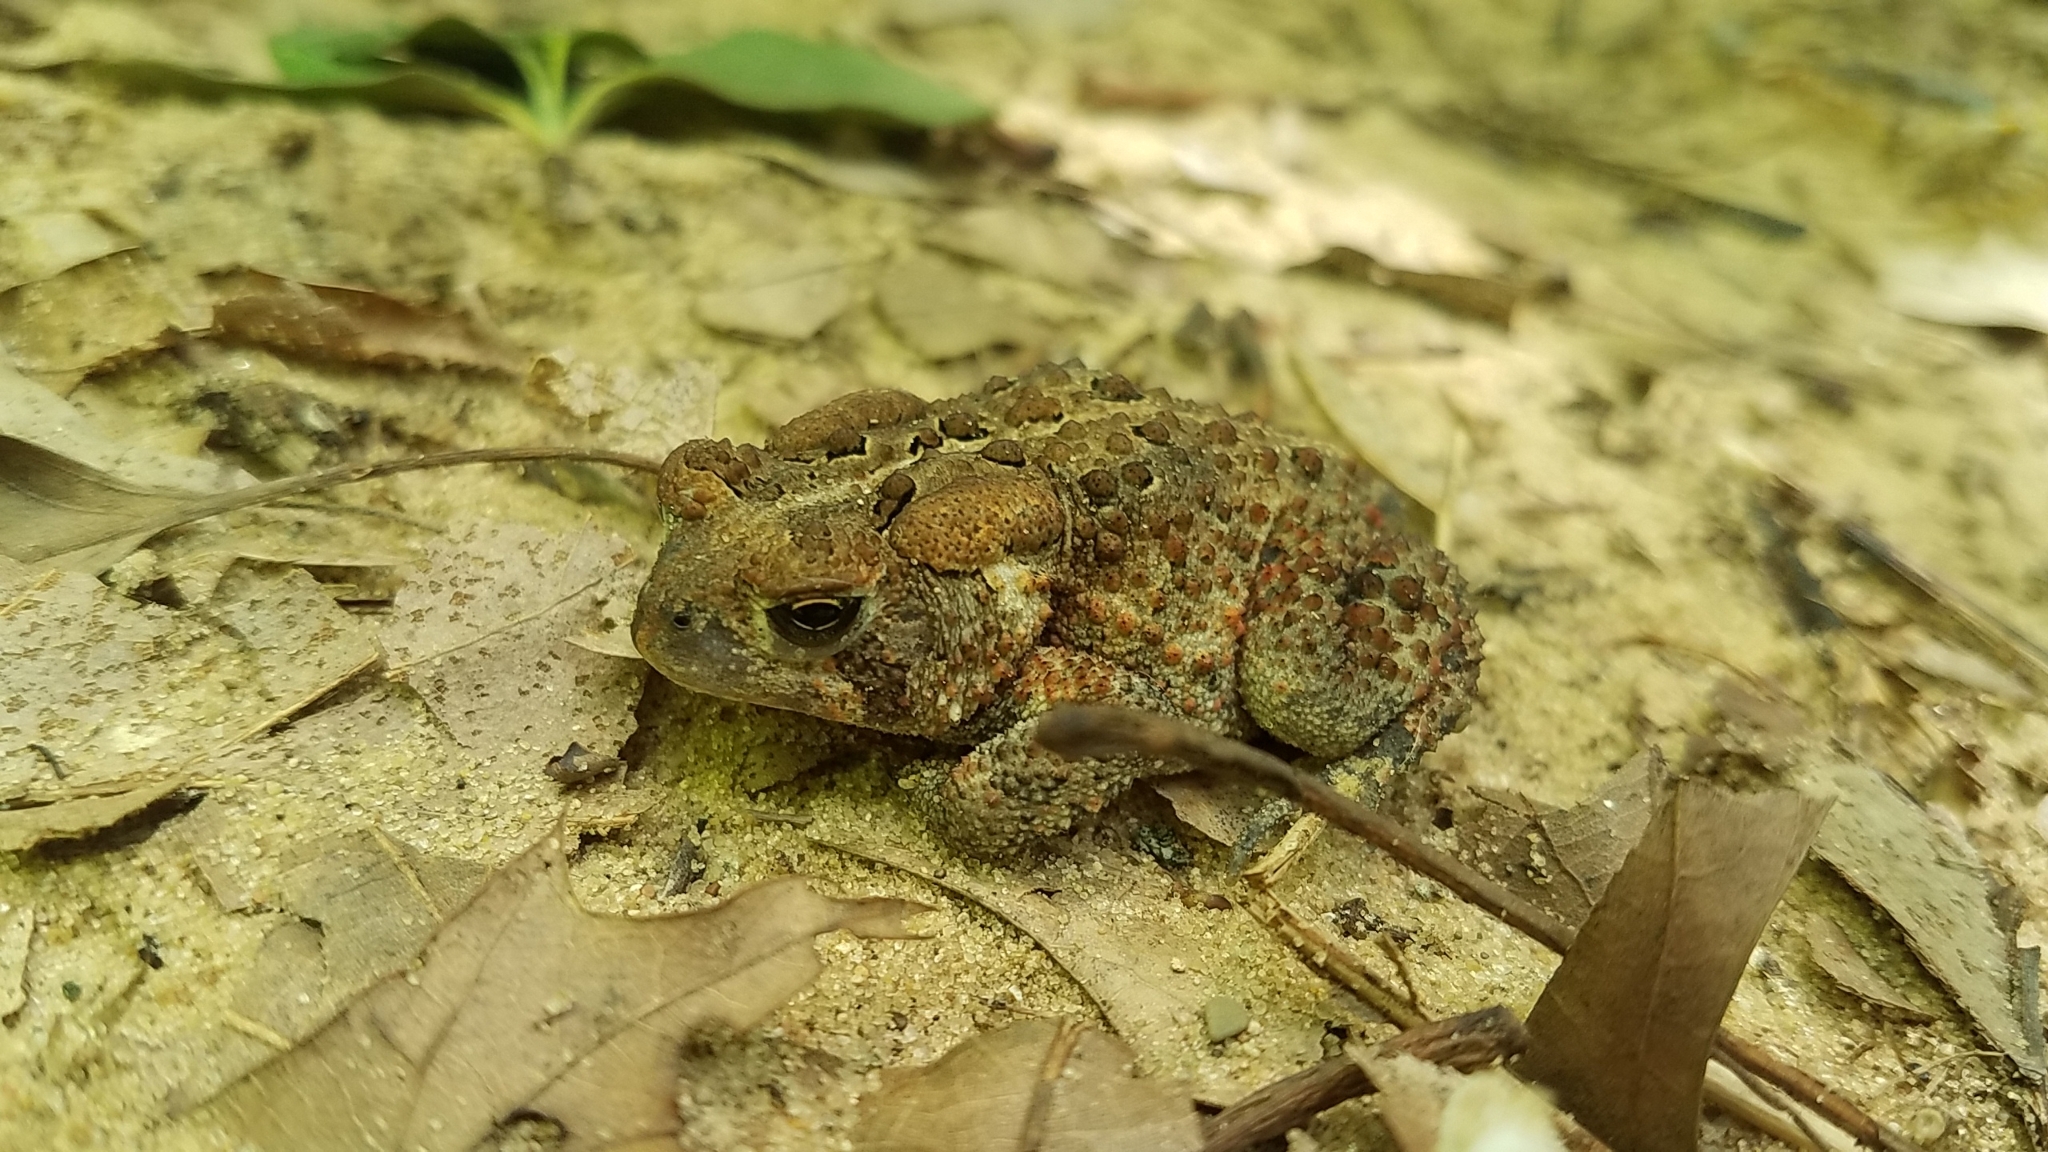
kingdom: Animalia
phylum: Chordata
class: Amphibia
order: Anura
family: Bufonidae
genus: Anaxyrus
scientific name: Anaxyrus americanus
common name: American toad
